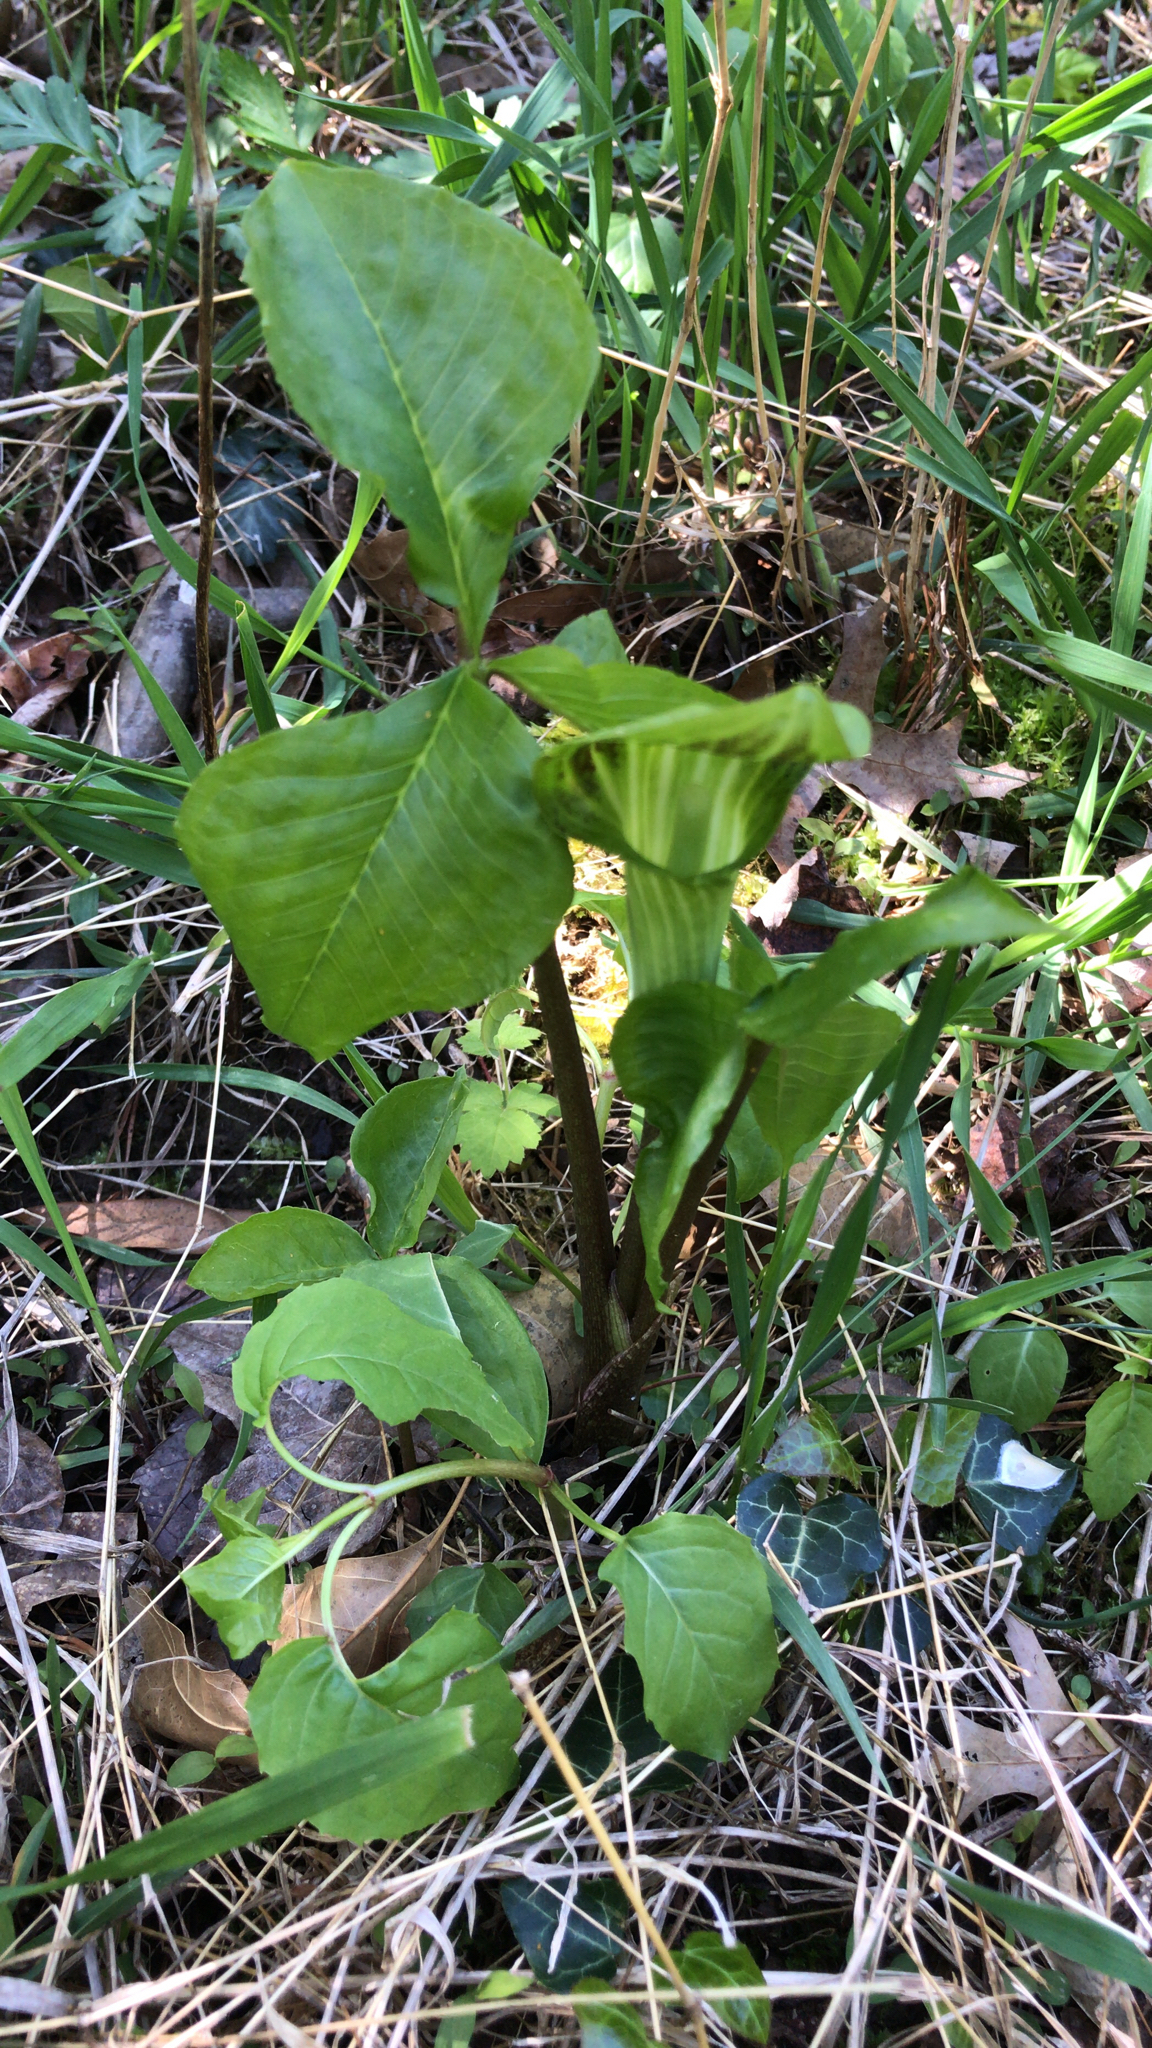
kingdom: Plantae
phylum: Tracheophyta
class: Liliopsida
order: Alismatales
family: Araceae
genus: Arisaema
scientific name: Arisaema triphyllum
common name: Jack-in-the-pulpit
